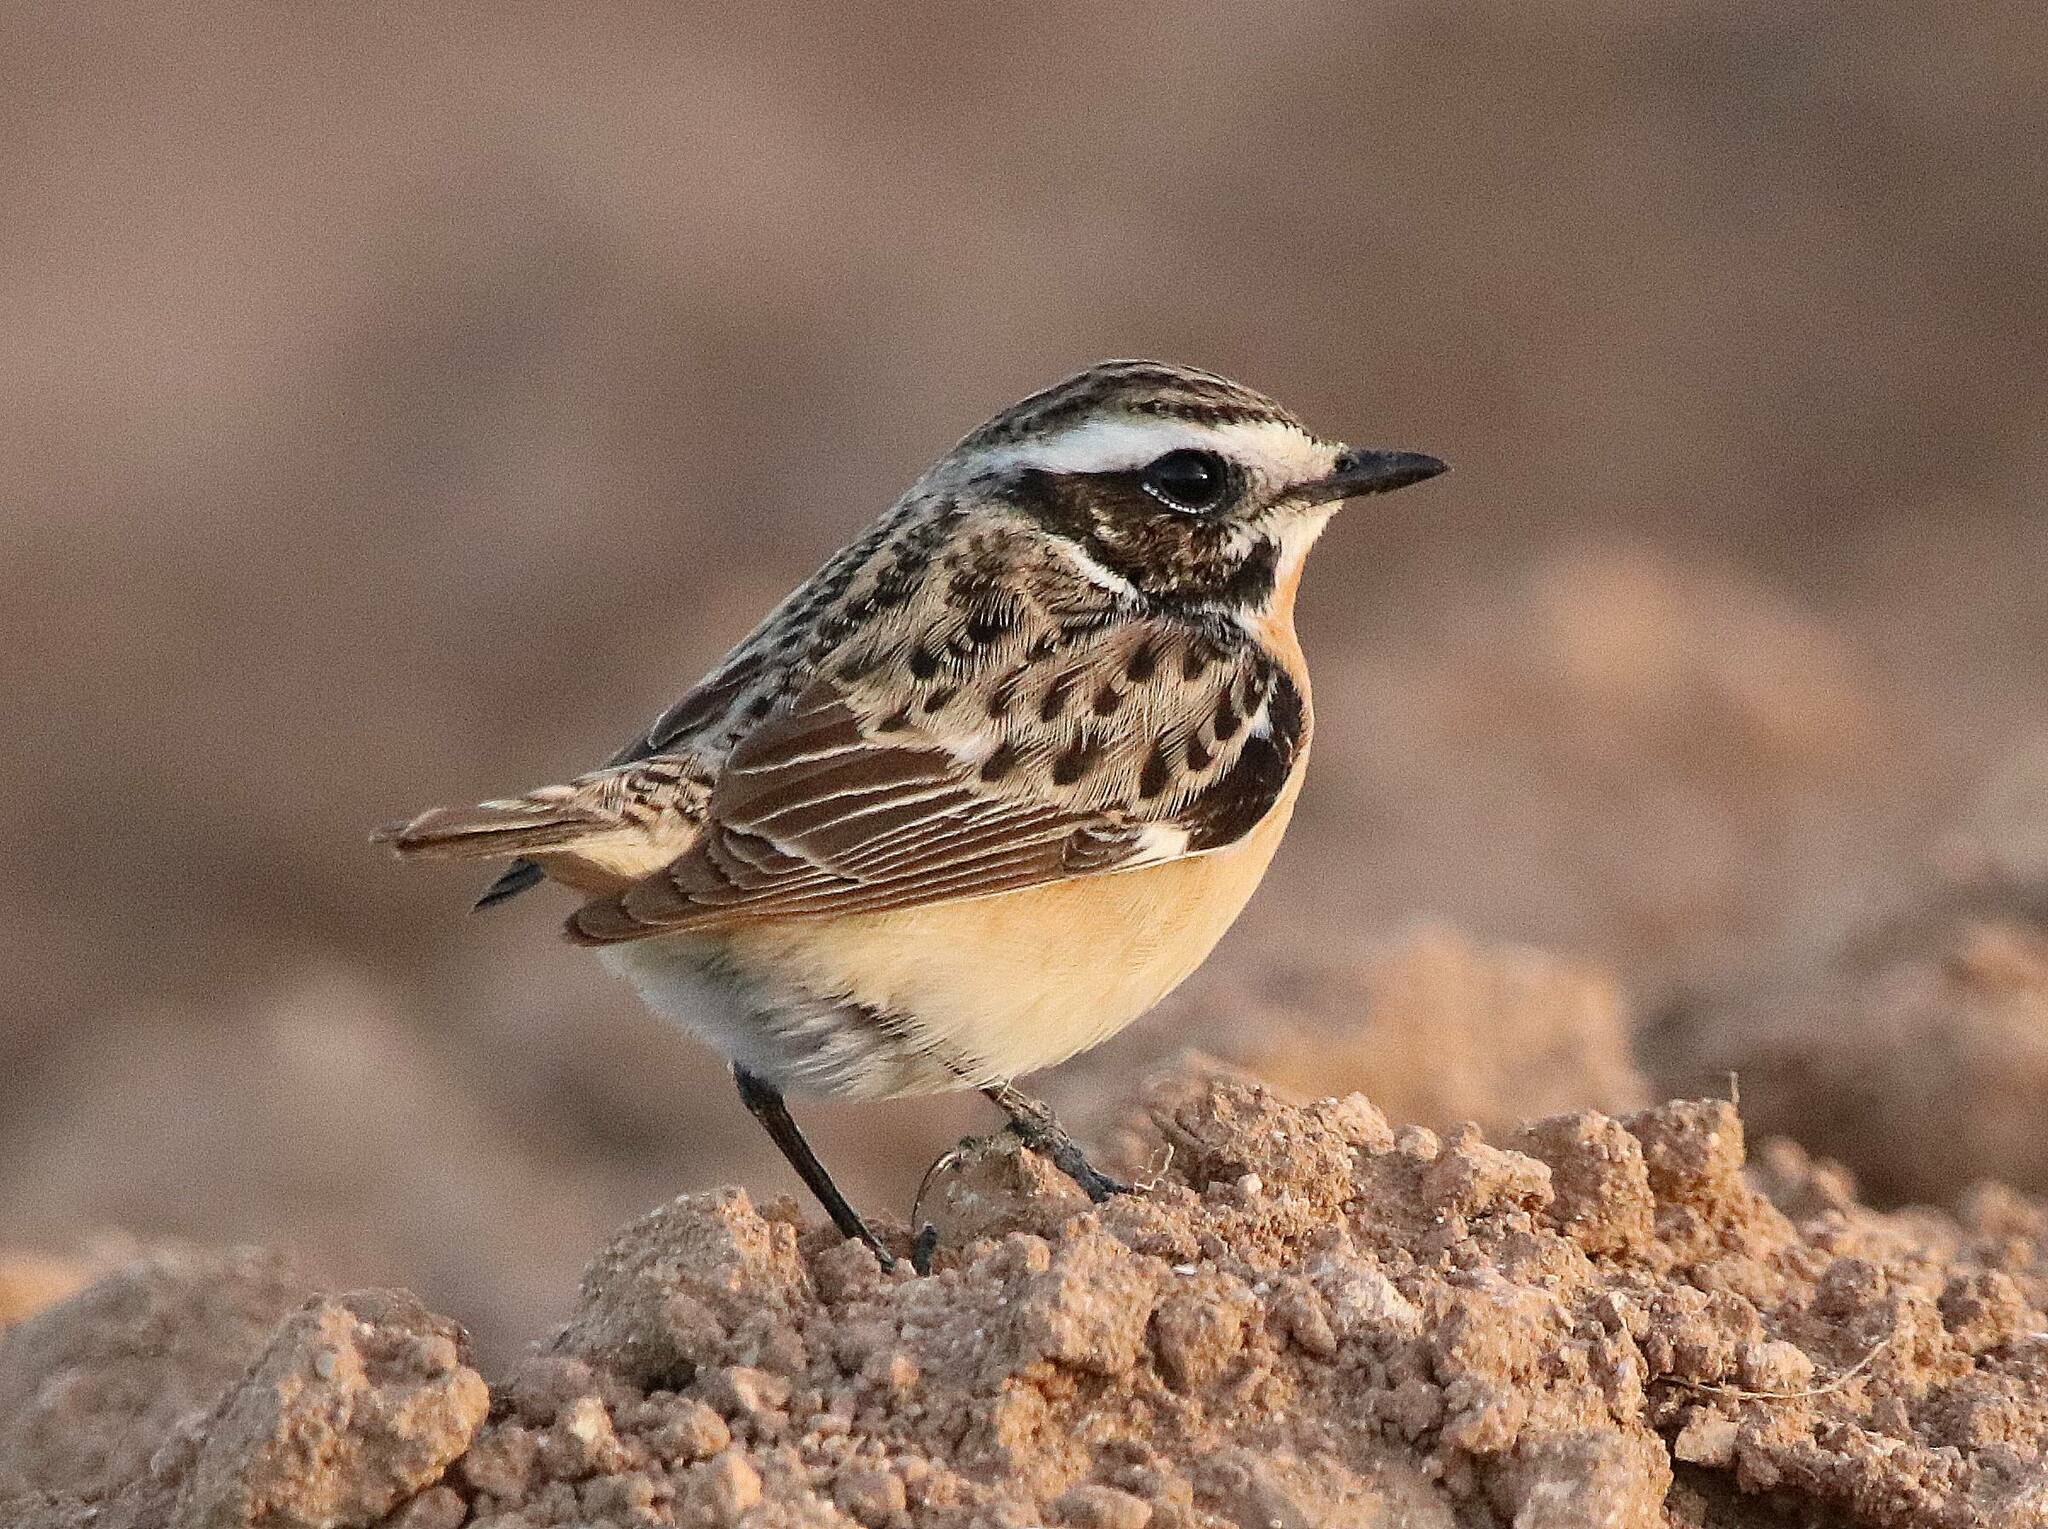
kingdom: Animalia
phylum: Chordata
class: Aves
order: Passeriformes
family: Muscicapidae
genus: Saxicola
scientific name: Saxicola rubetra
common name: Whinchat
